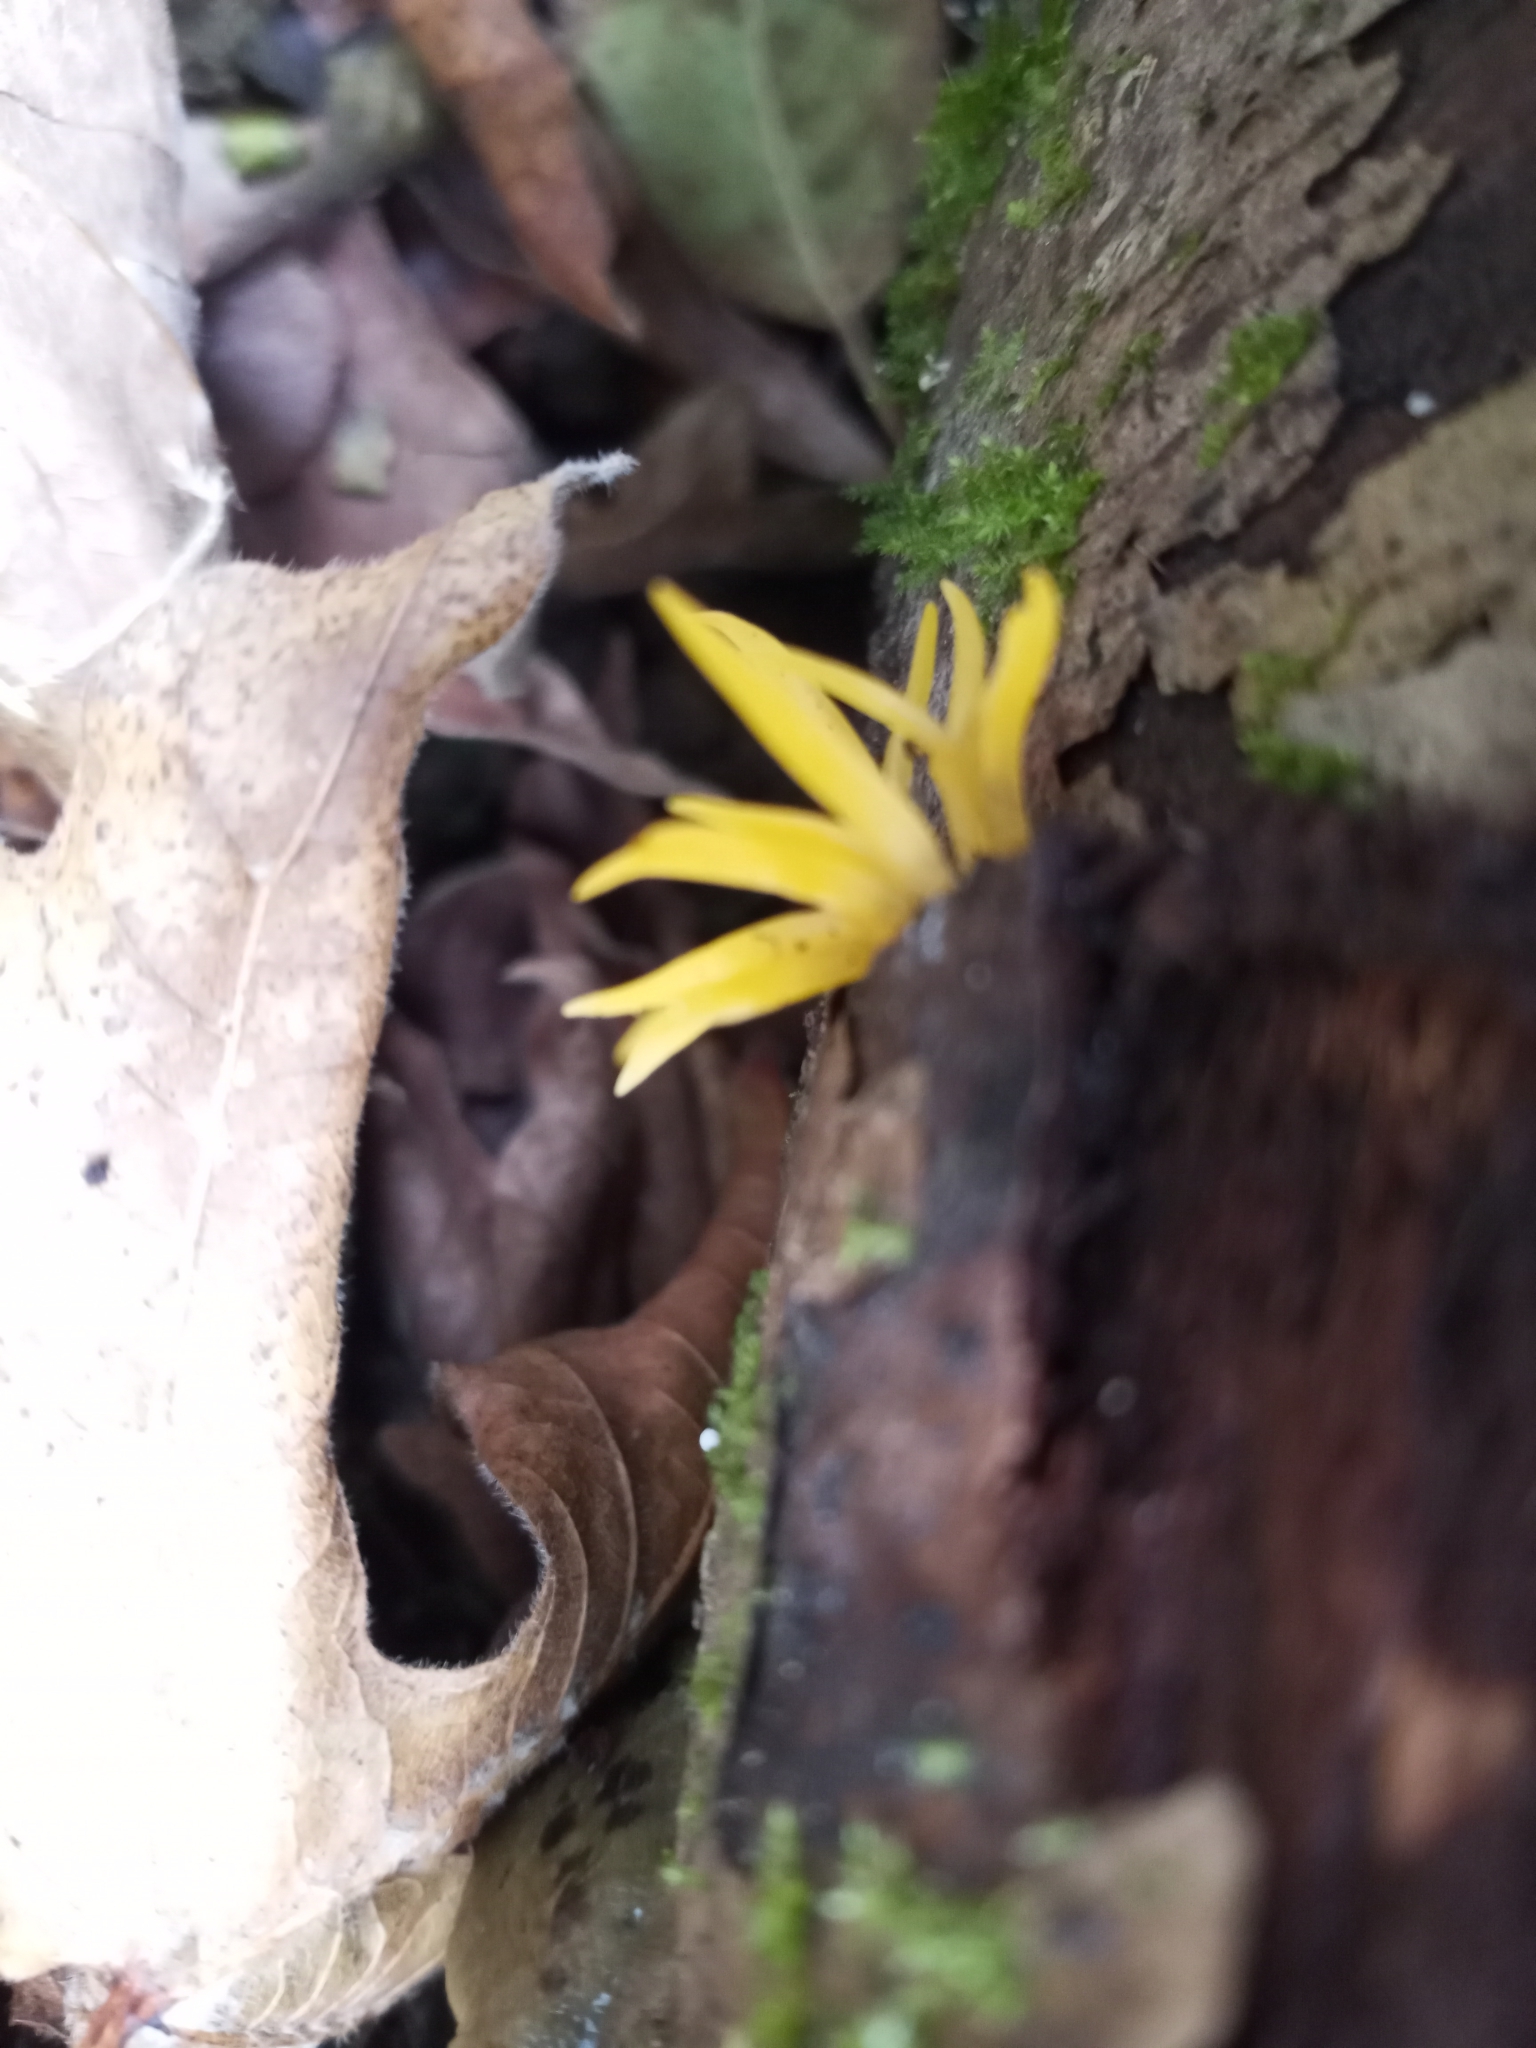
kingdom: Fungi
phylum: Basidiomycota
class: Dacrymycetes
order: Dacrymycetales
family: Dacrymycetaceae
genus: Calocera
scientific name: Calocera cornea
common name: Small stagshorn
